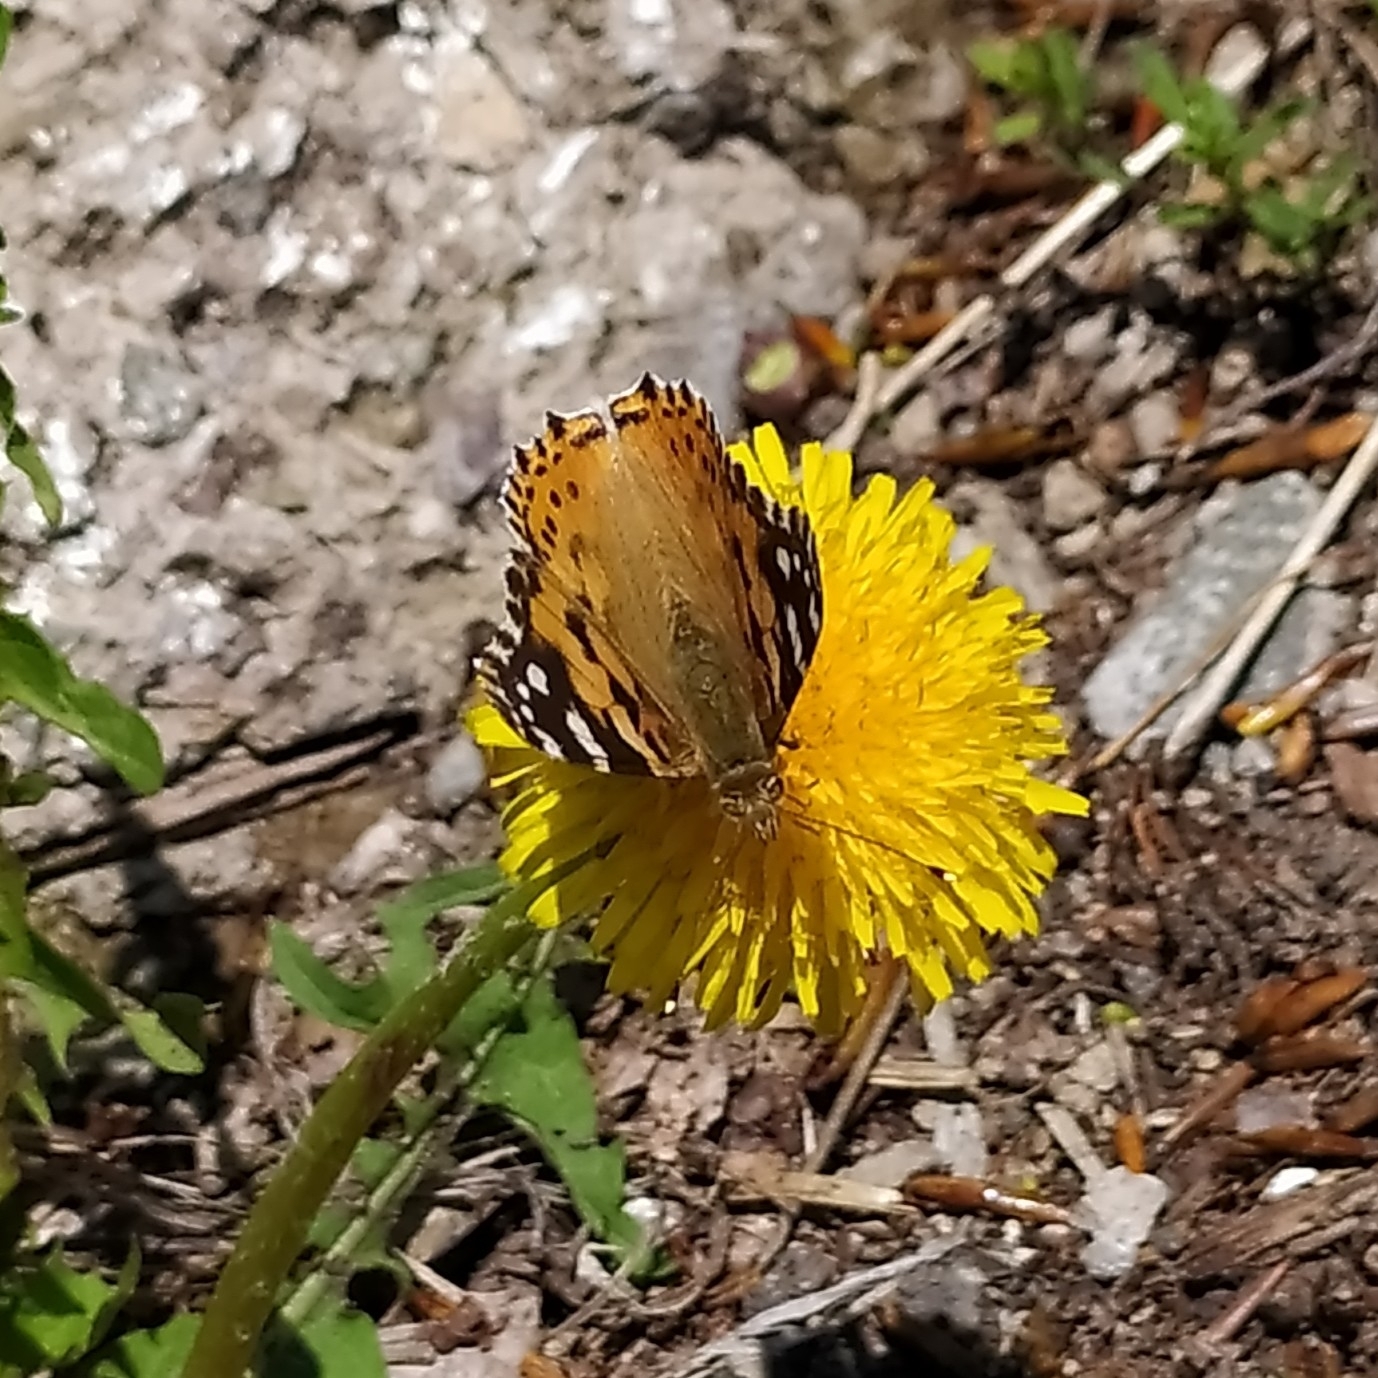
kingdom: Animalia
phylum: Arthropoda
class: Insecta
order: Lepidoptera
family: Nymphalidae
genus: Vanessa
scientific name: Vanessa cardui
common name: Painted lady
